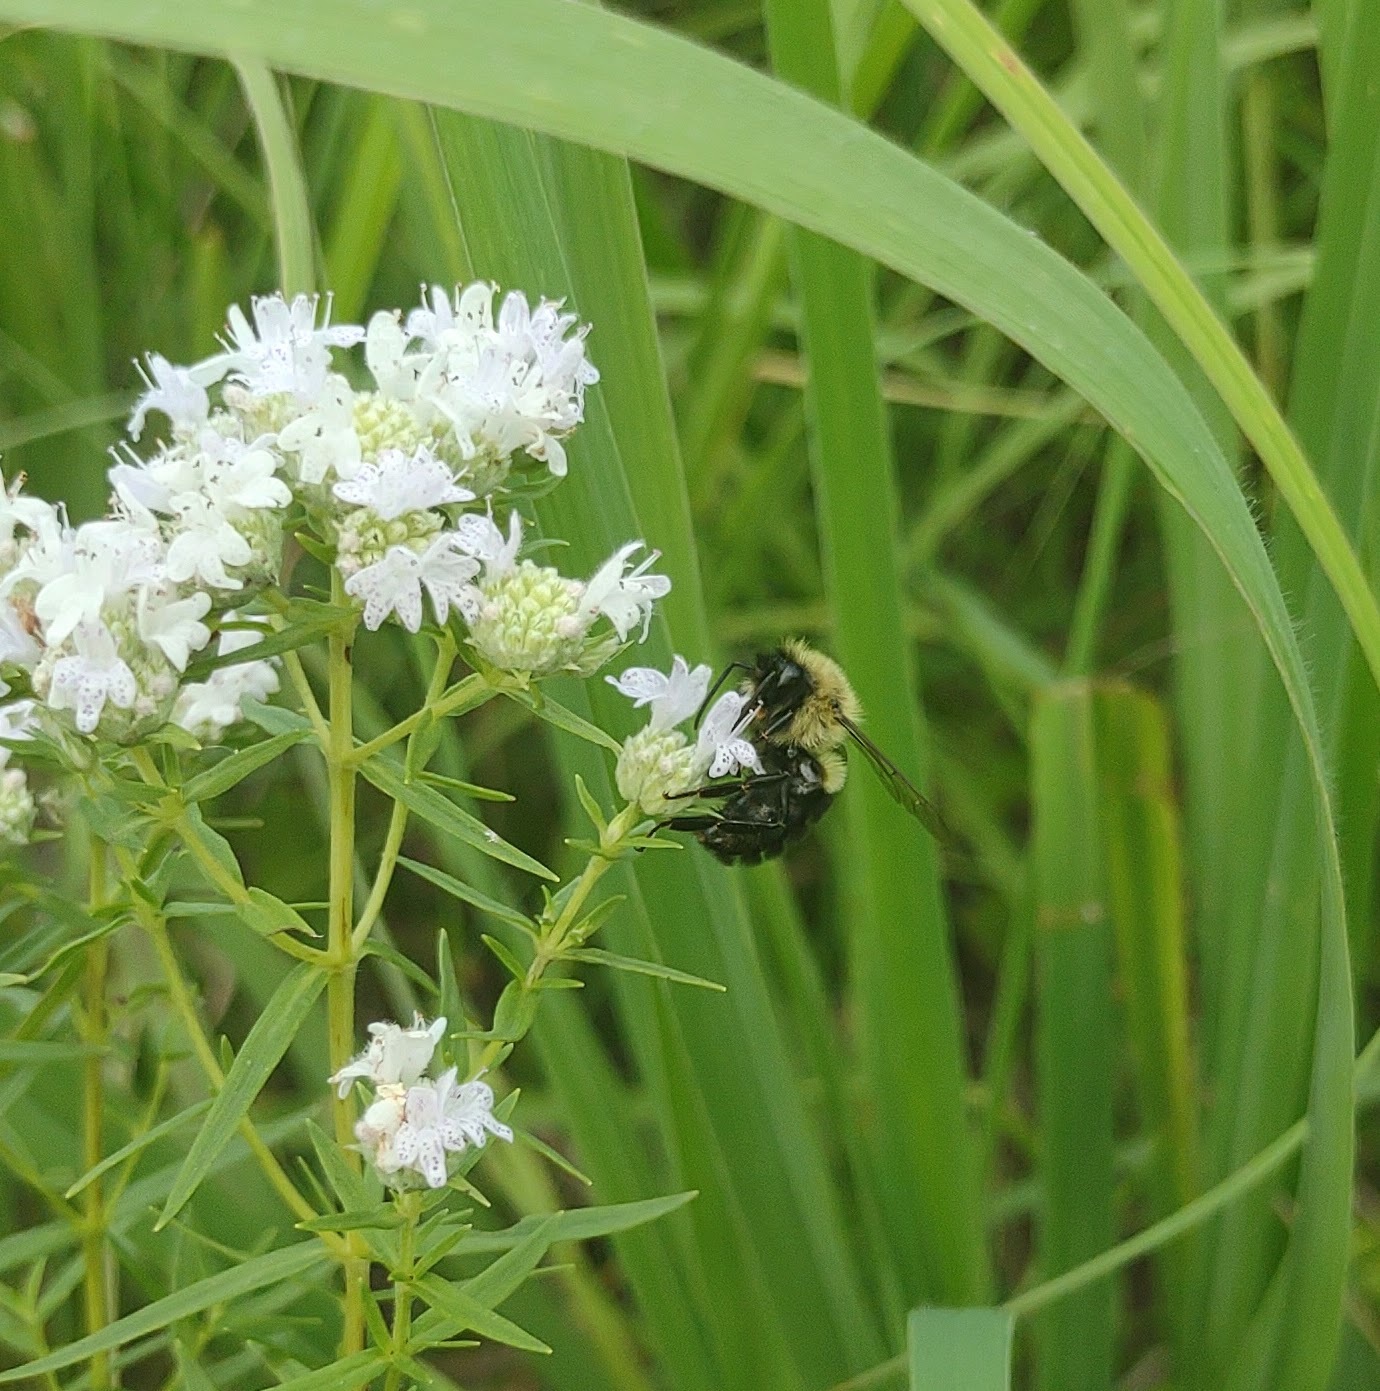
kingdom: Animalia
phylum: Arthropoda
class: Insecta
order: Hymenoptera
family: Apidae
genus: Bombus
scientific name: Bombus impatiens
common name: Common eastern bumble bee
